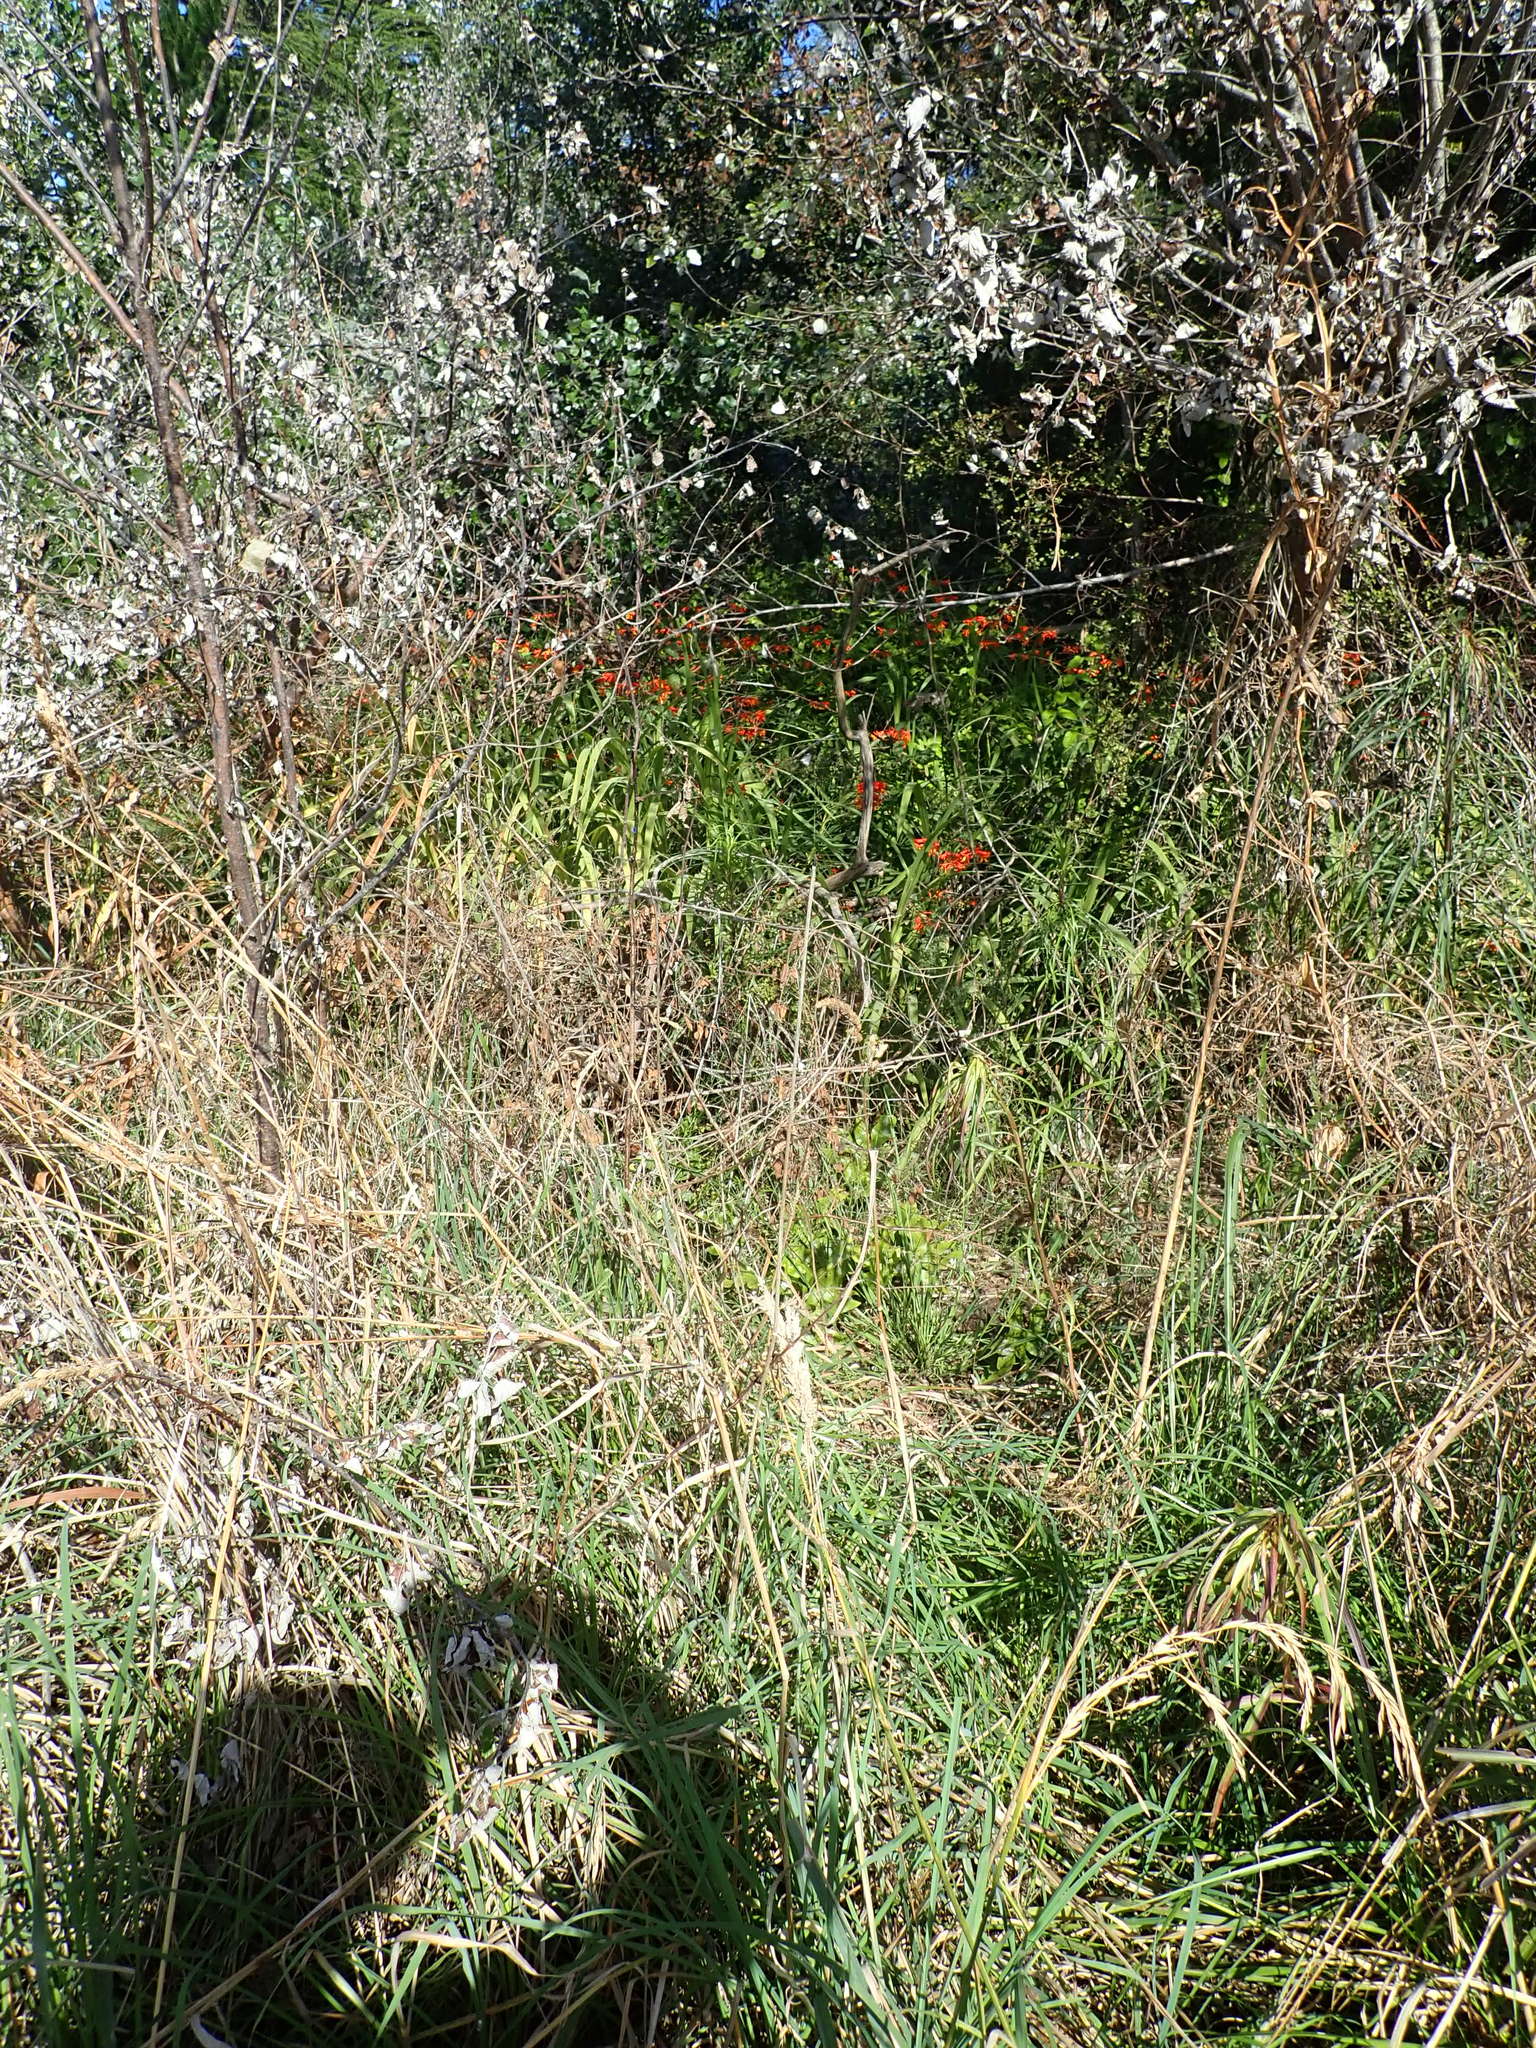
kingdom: Plantae
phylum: Tracheophyta
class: Magnoliopsida
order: Caryophyllales
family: Polygonaceae
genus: Muehlenbeckia
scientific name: Muehlenbeckia complexa
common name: Wireplant
